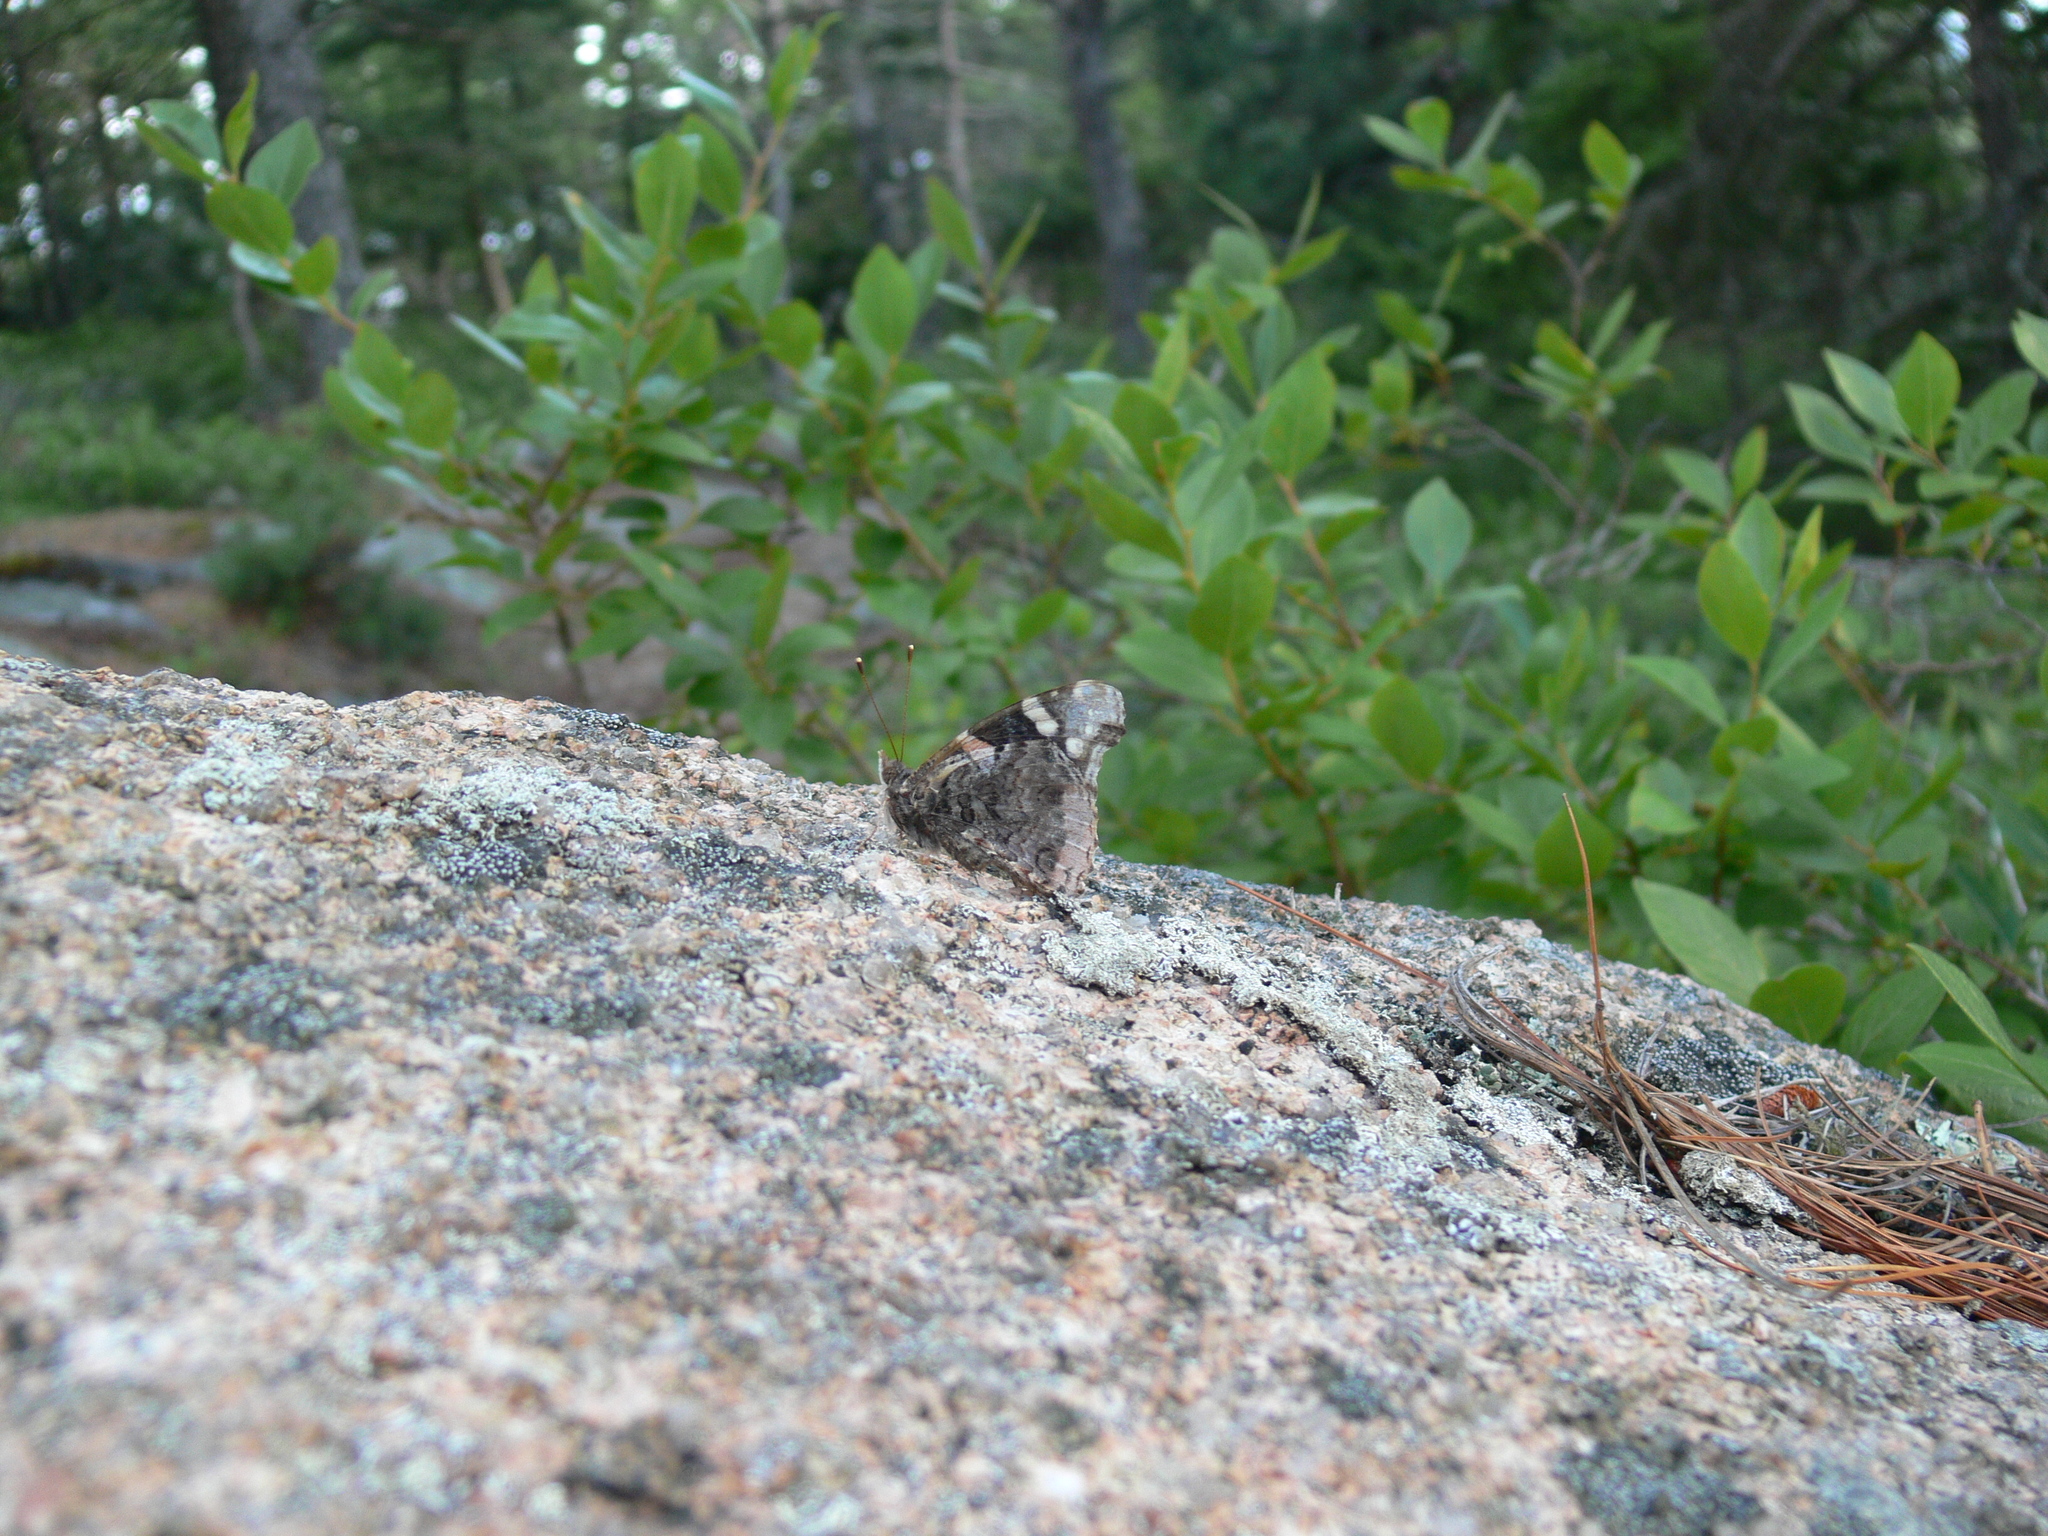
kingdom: Animalia
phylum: Arthropoda
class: Insecta
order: Lepidoptera
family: Nymphalidae
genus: Vanessa
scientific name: Vanessa atalanta
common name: Red admiral
